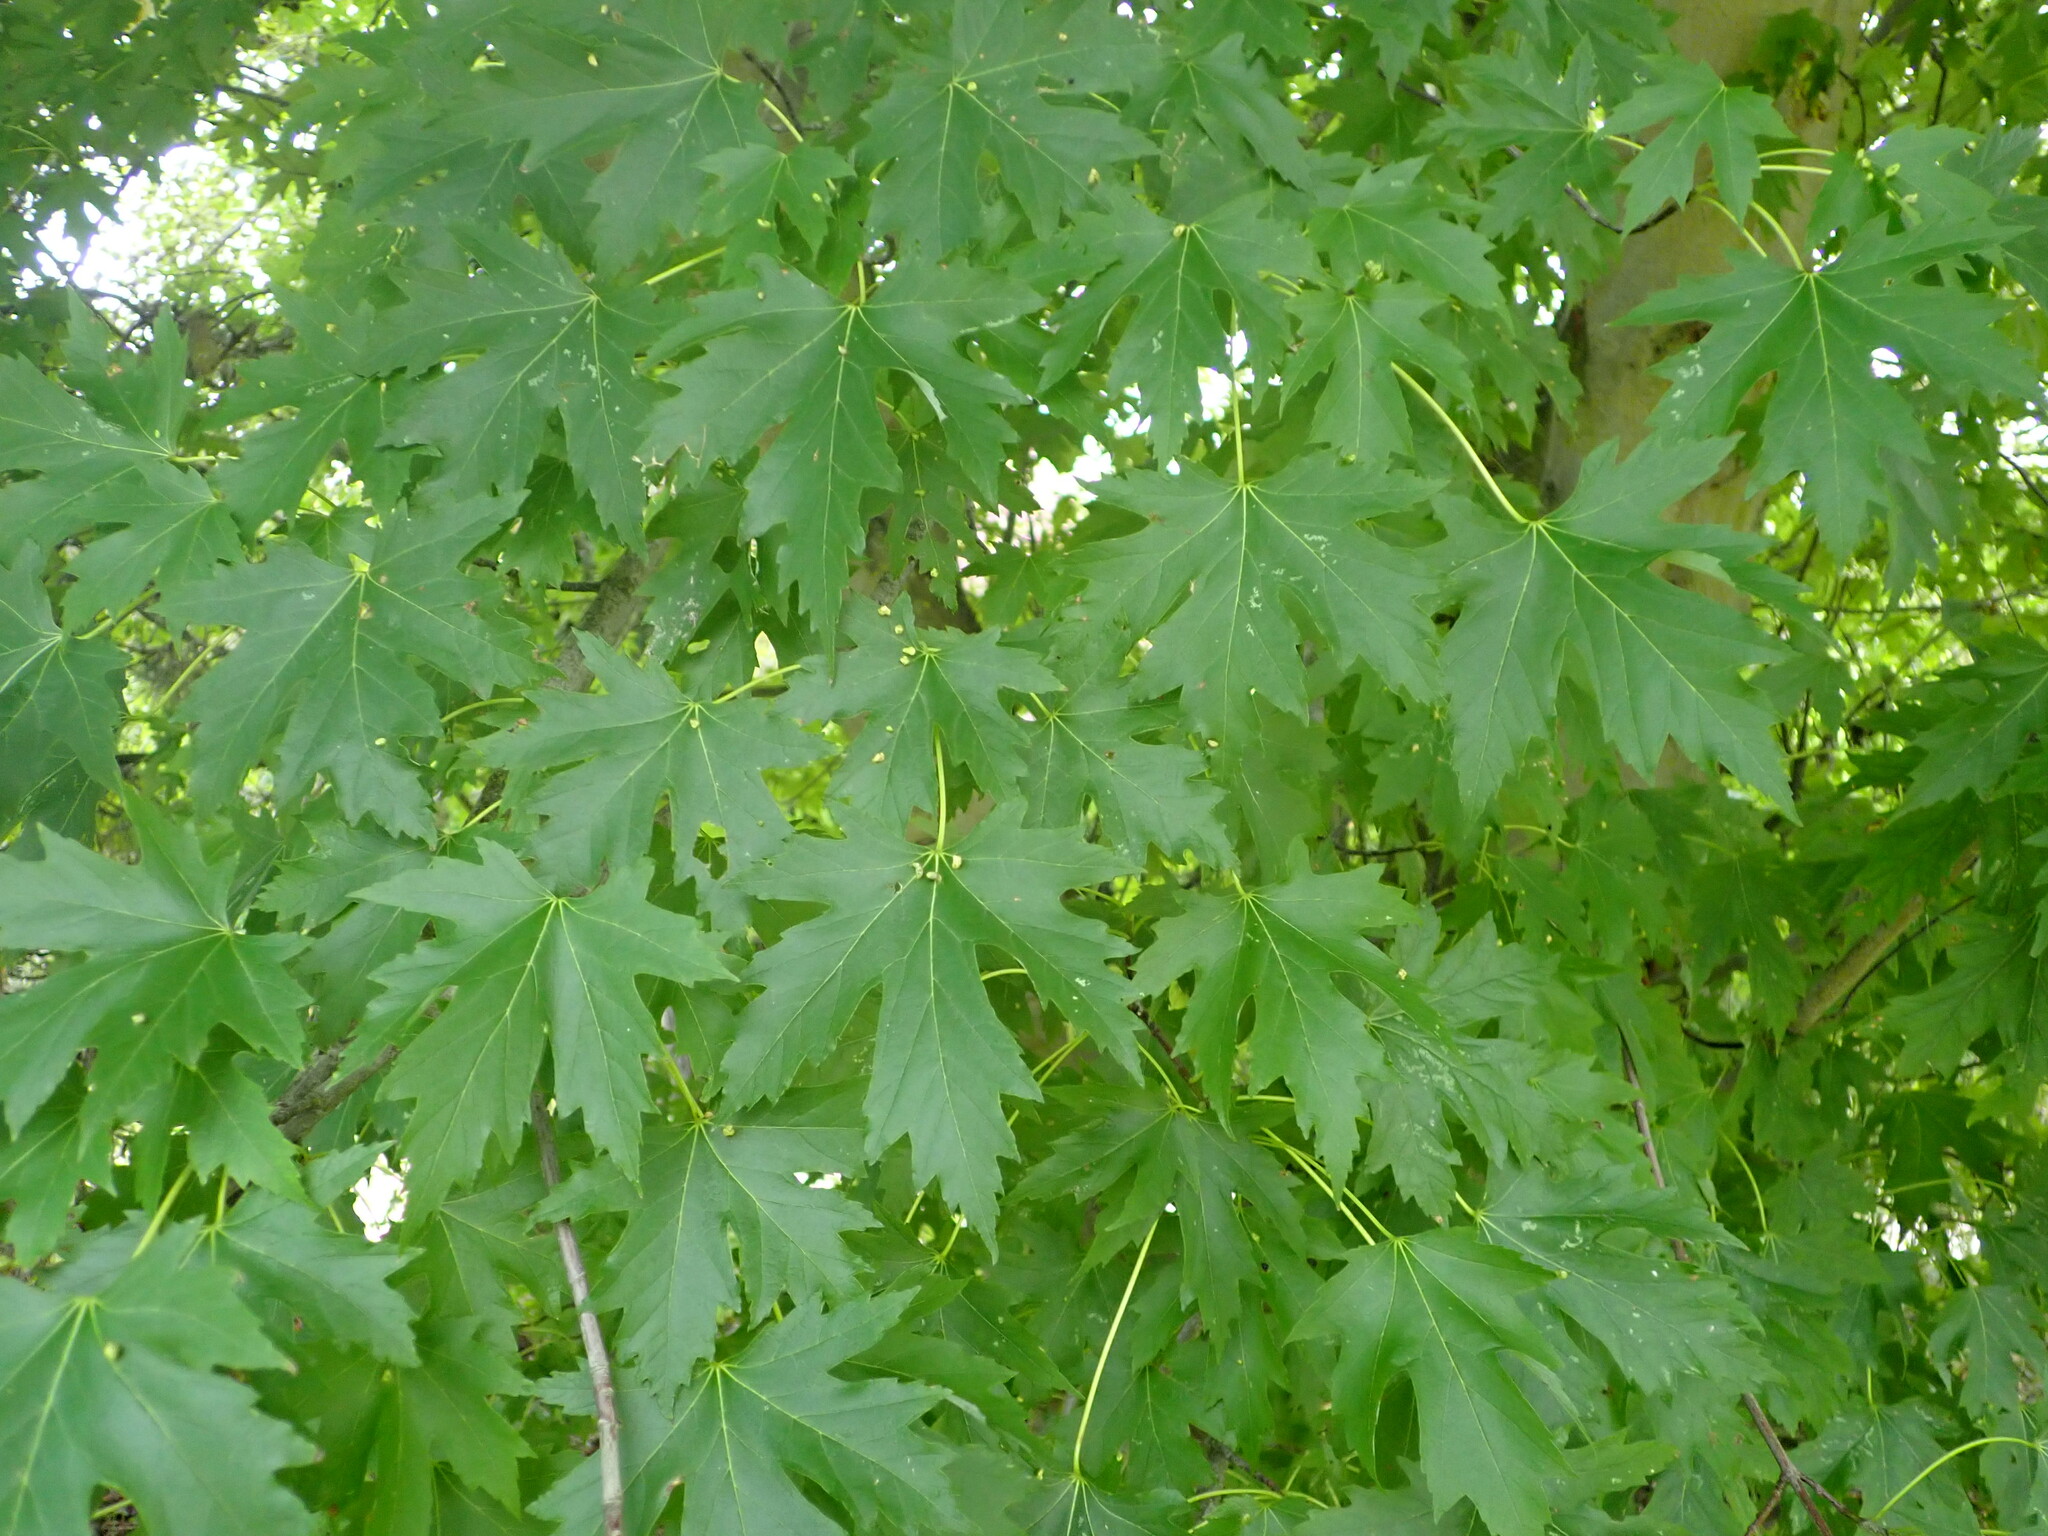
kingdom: Plantae
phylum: Tracheophyta
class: Magnoliopsida
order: Sapindales
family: Sapindaceae
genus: Acer
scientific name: Acer saccharinum
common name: Silver maple
